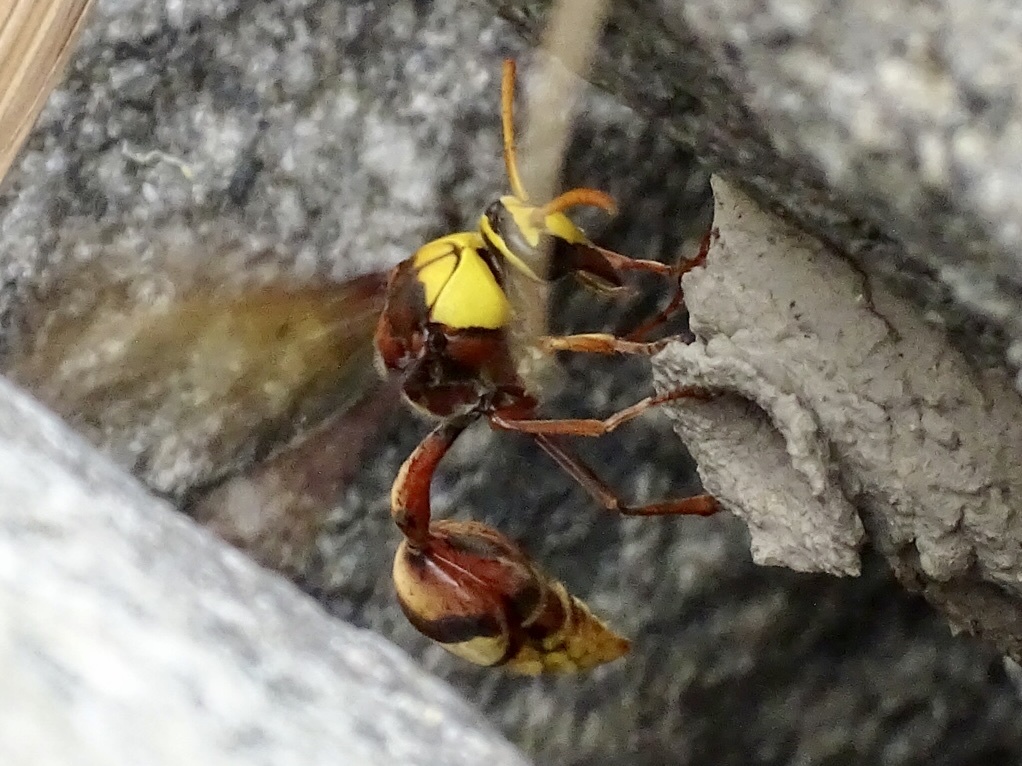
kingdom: Animalia
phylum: Arthropoda
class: Insecta
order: Hymenoptera
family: Eumenidae
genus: Delta
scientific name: Delta pyriforme
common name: Wasp
